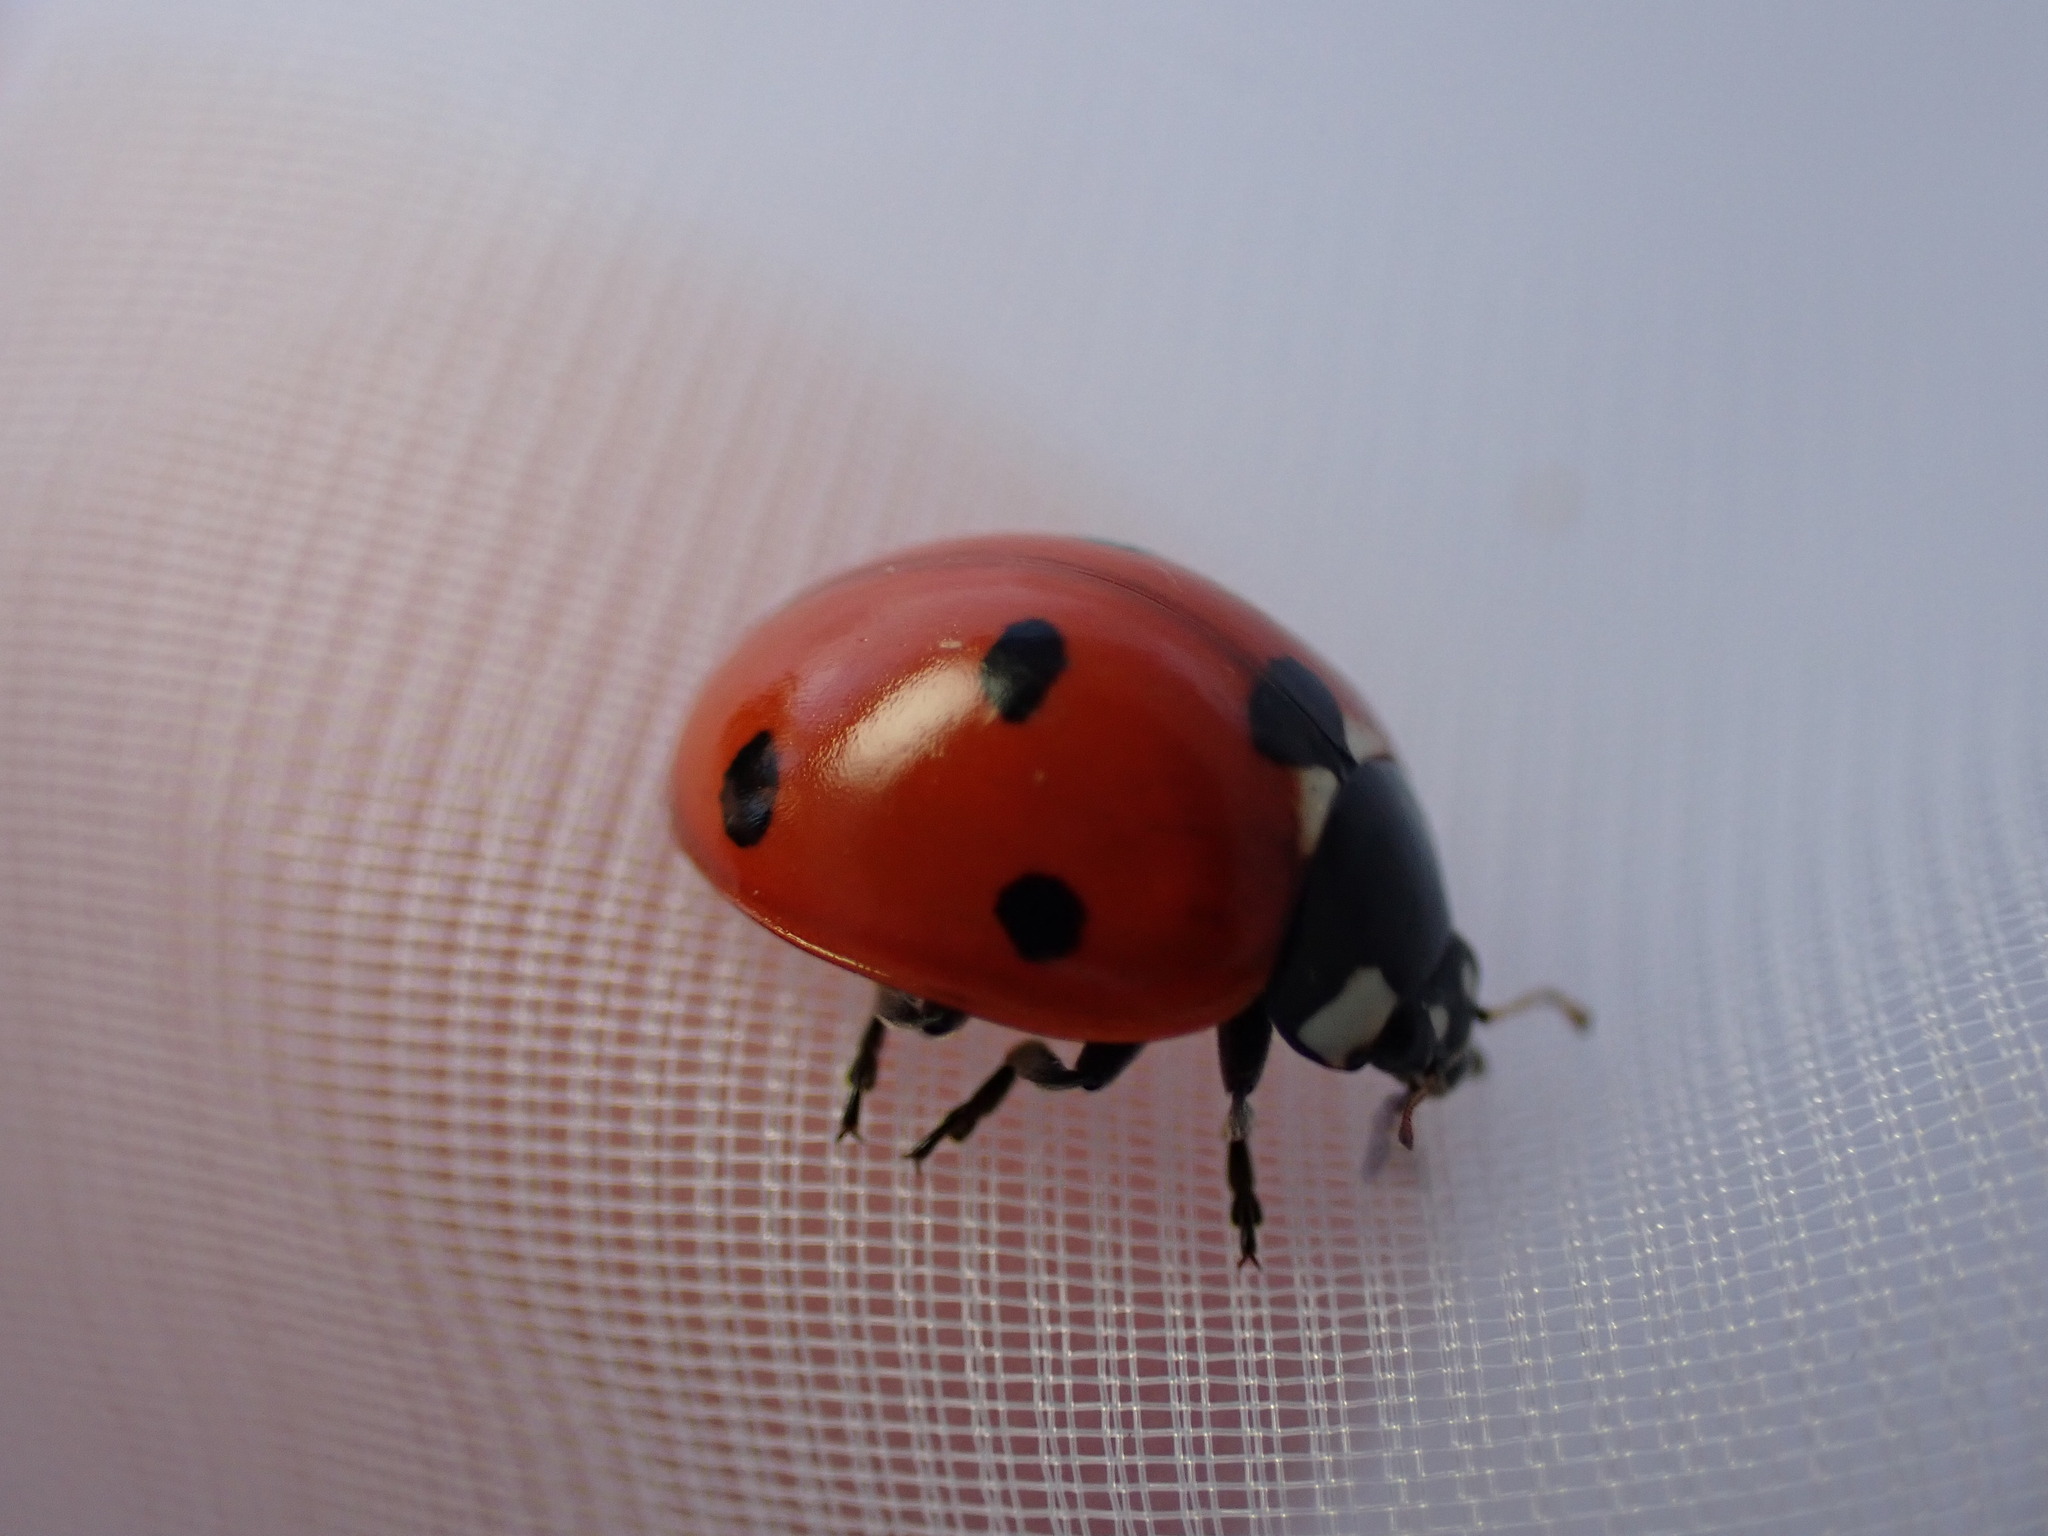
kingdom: Animalia
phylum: Arthropoda
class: Insecta
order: Coleoptera
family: Coccinellidae
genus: Coccinella
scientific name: Coccinella septempunctata
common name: Sevenspotted lady beetle
